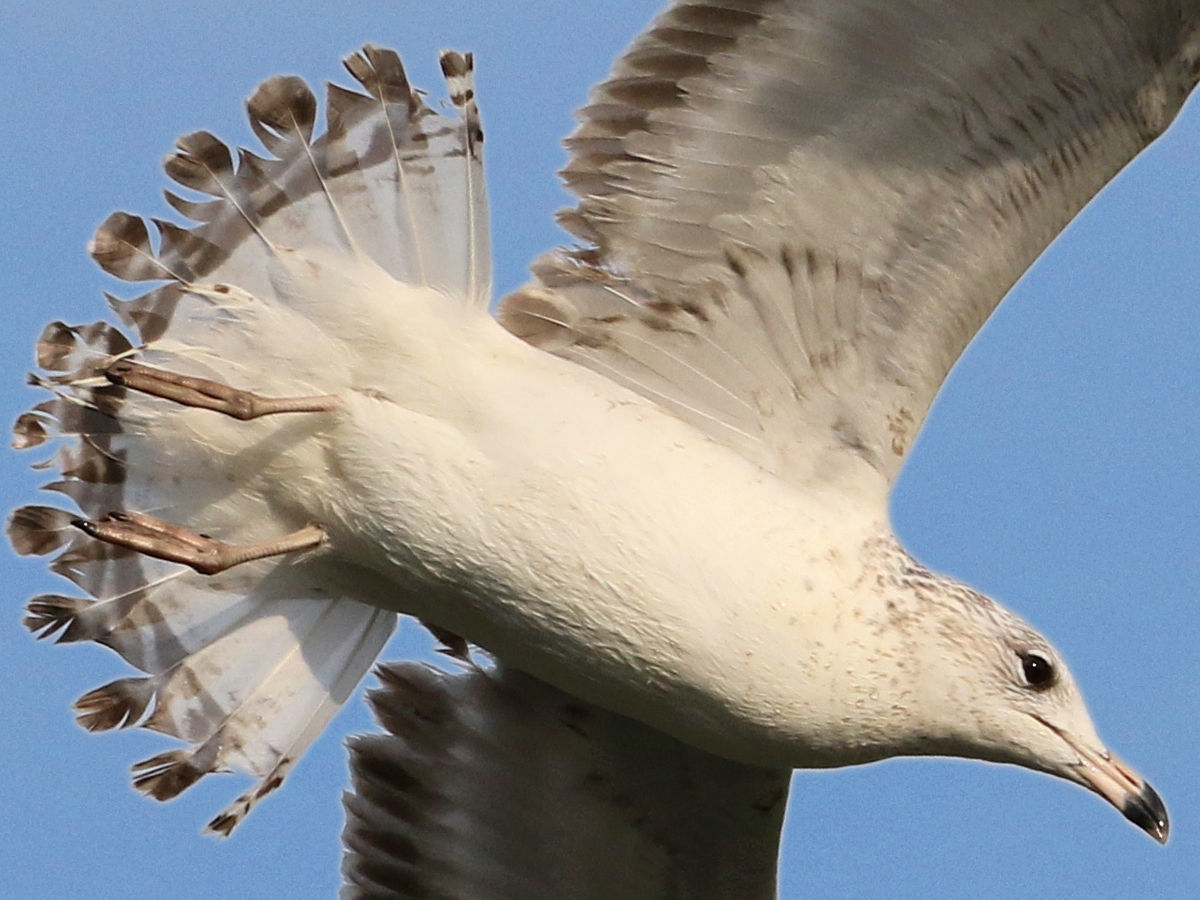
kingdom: Animalia
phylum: Chordata
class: Aves
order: Charadriiformes
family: Laridae
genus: Larus
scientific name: Larus delawarensis
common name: Ring-billed gull
